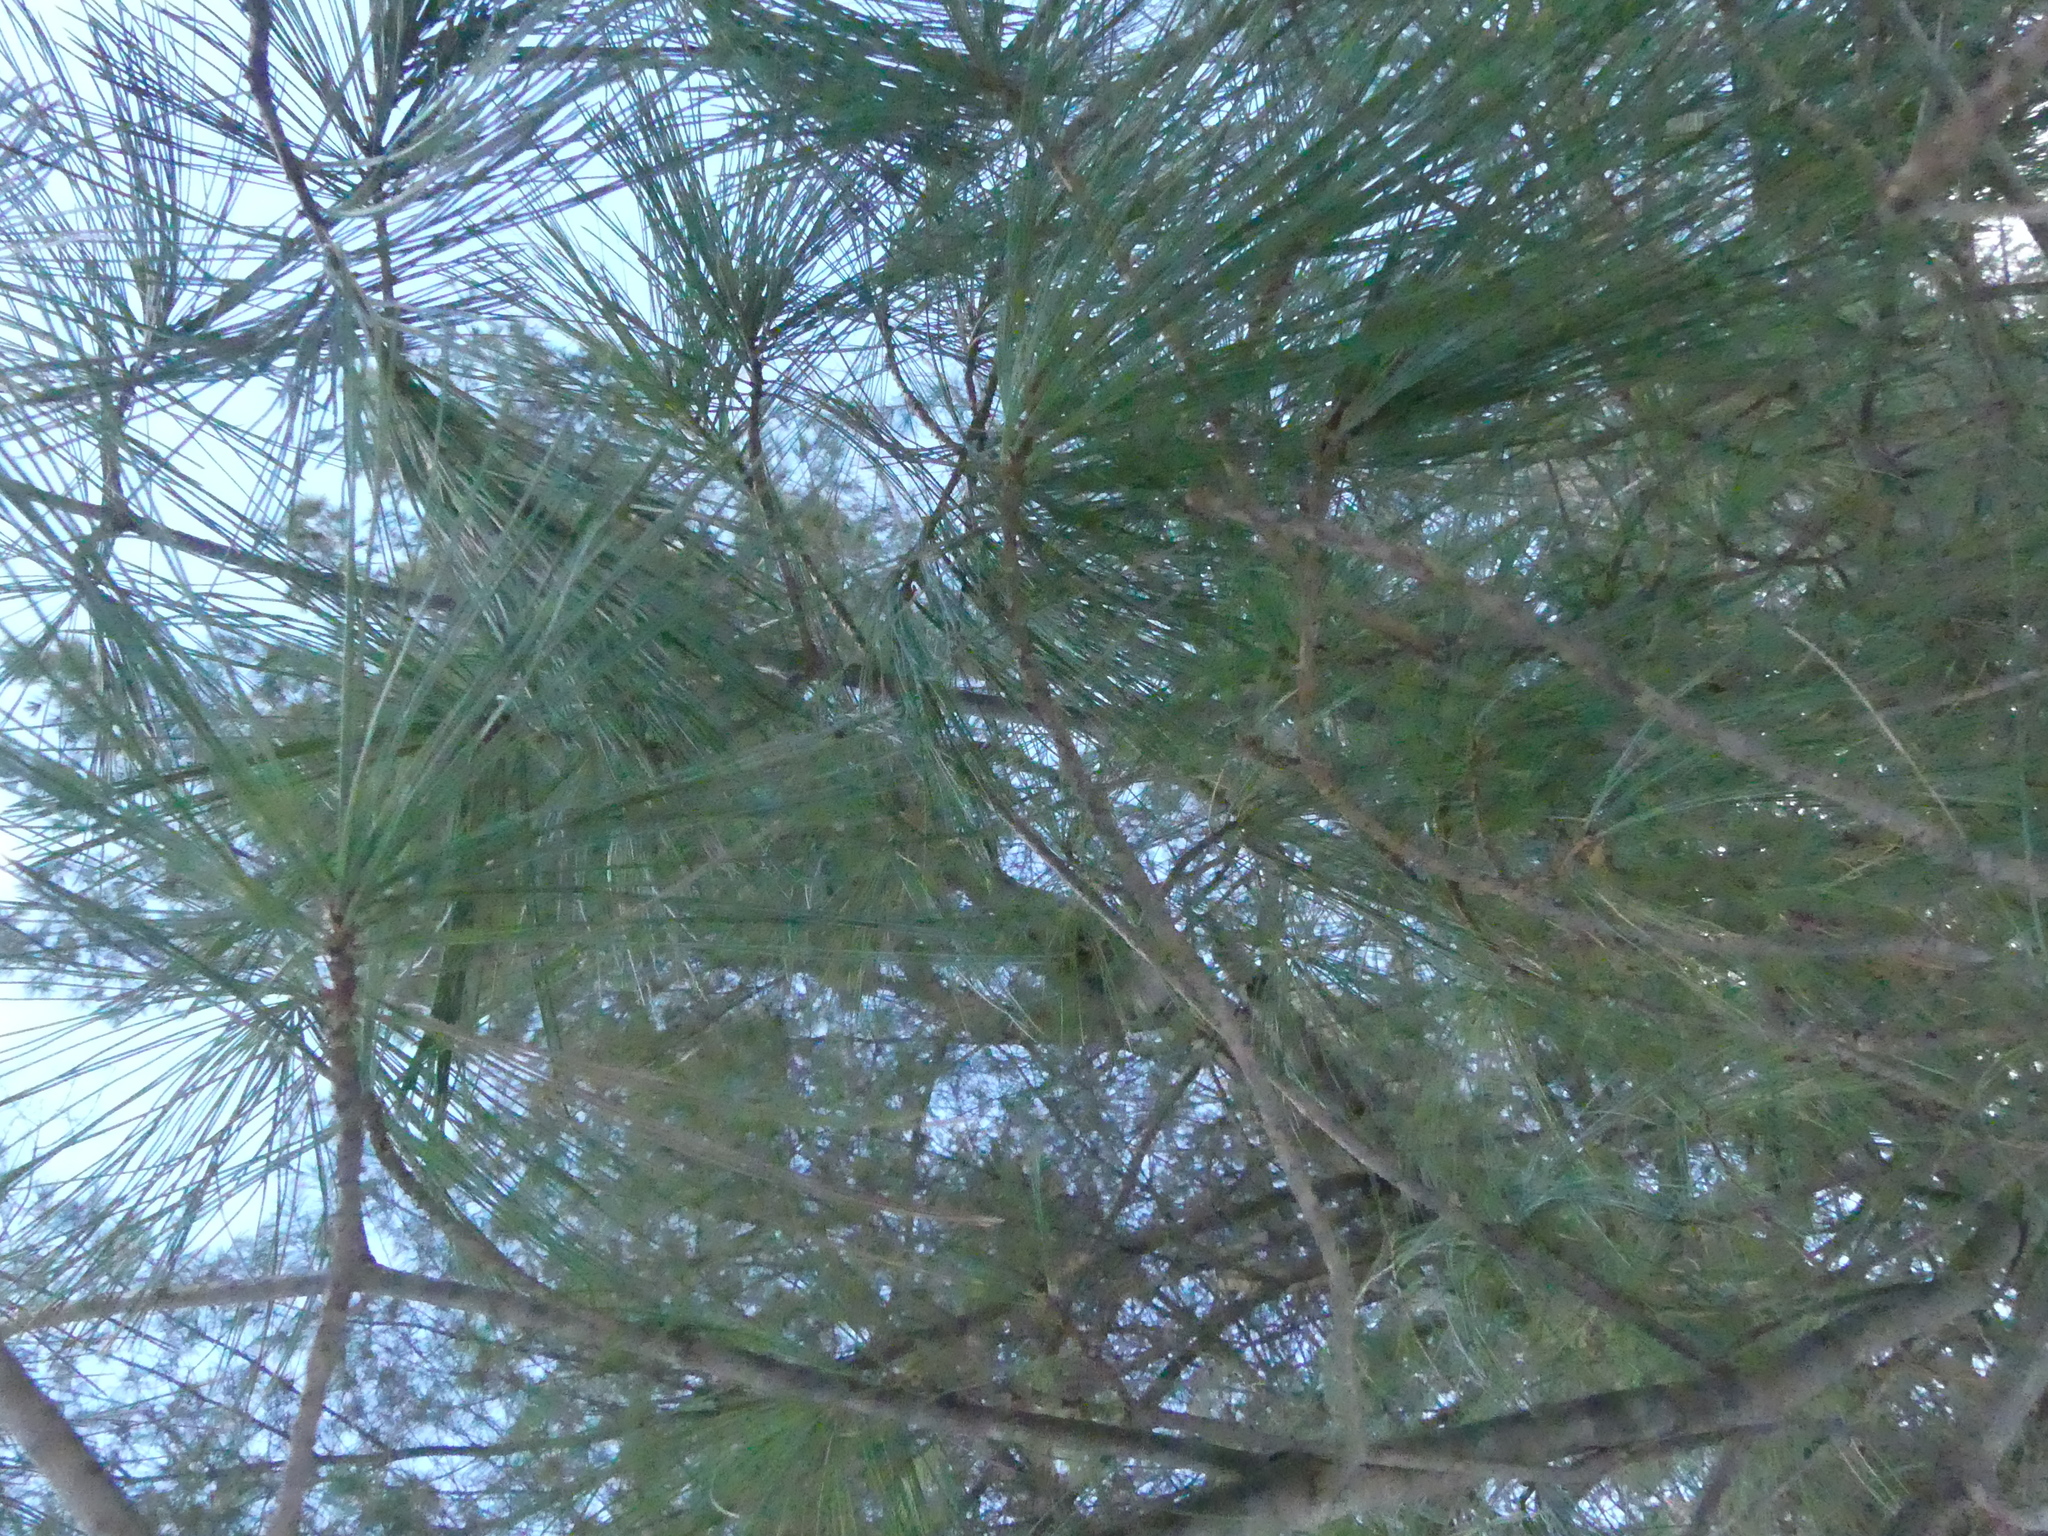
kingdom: Plantae
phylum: Tracheophyta
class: Pinopsida
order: Pinales
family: Pinaceae
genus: Pinus
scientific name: Pinus strobus
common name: Weymouth pine
